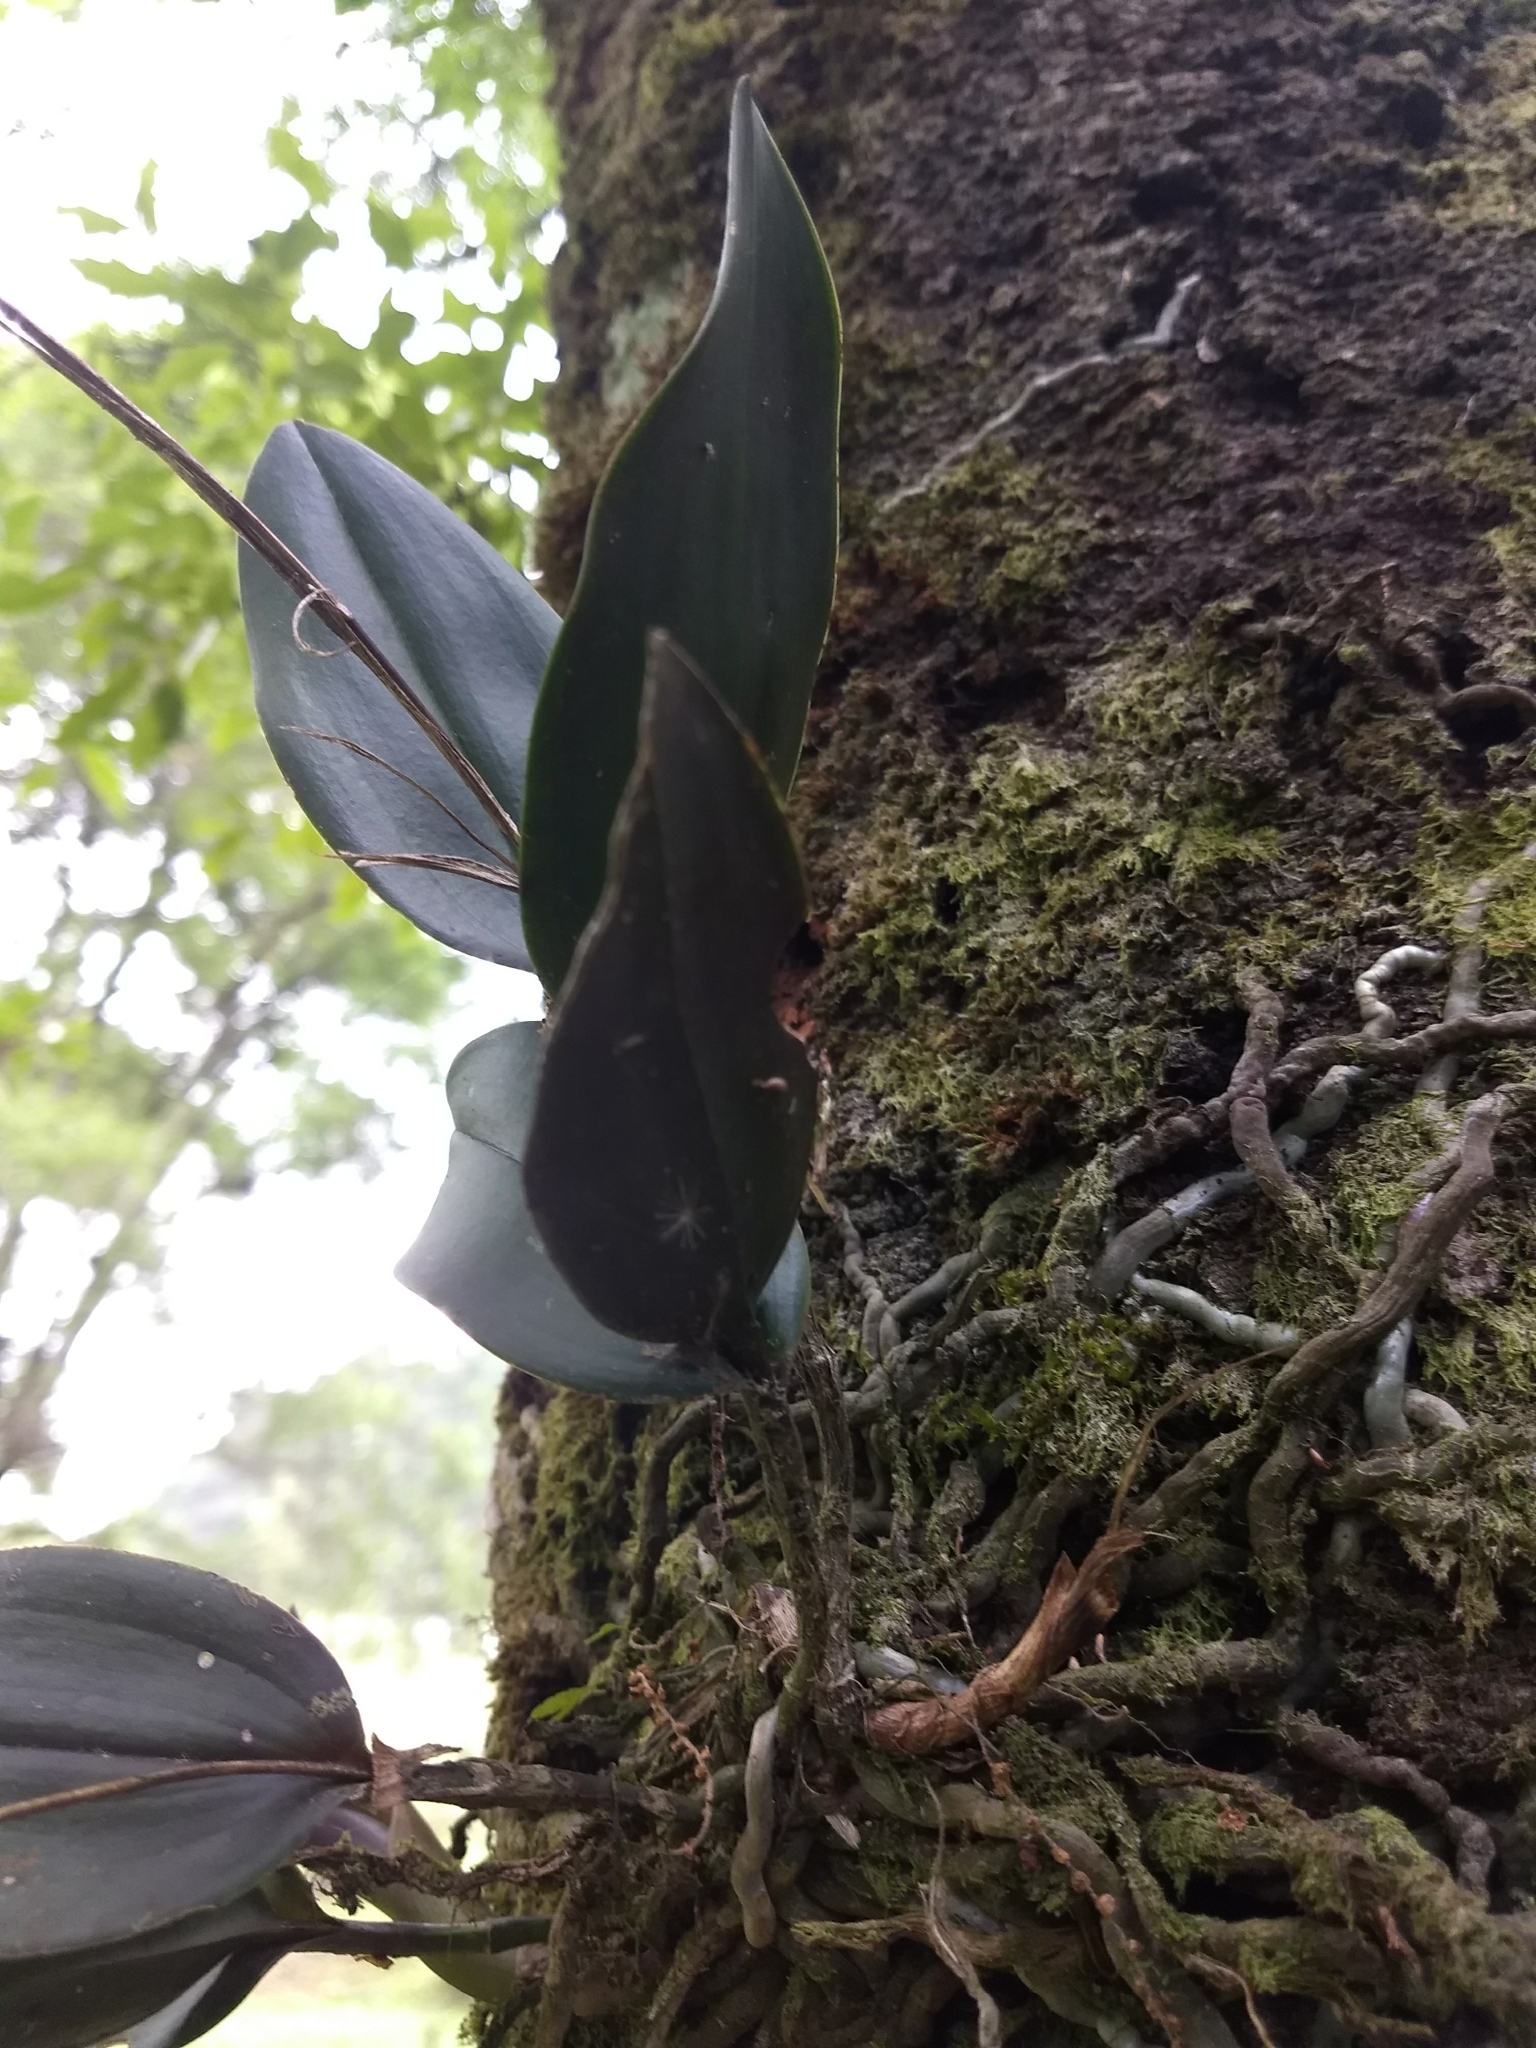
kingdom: Plantae
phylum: Tracheophyta
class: Liliopsida
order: Asparagales
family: Orchidaceae
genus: Epidendrum
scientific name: Epidendrum longipetalum
